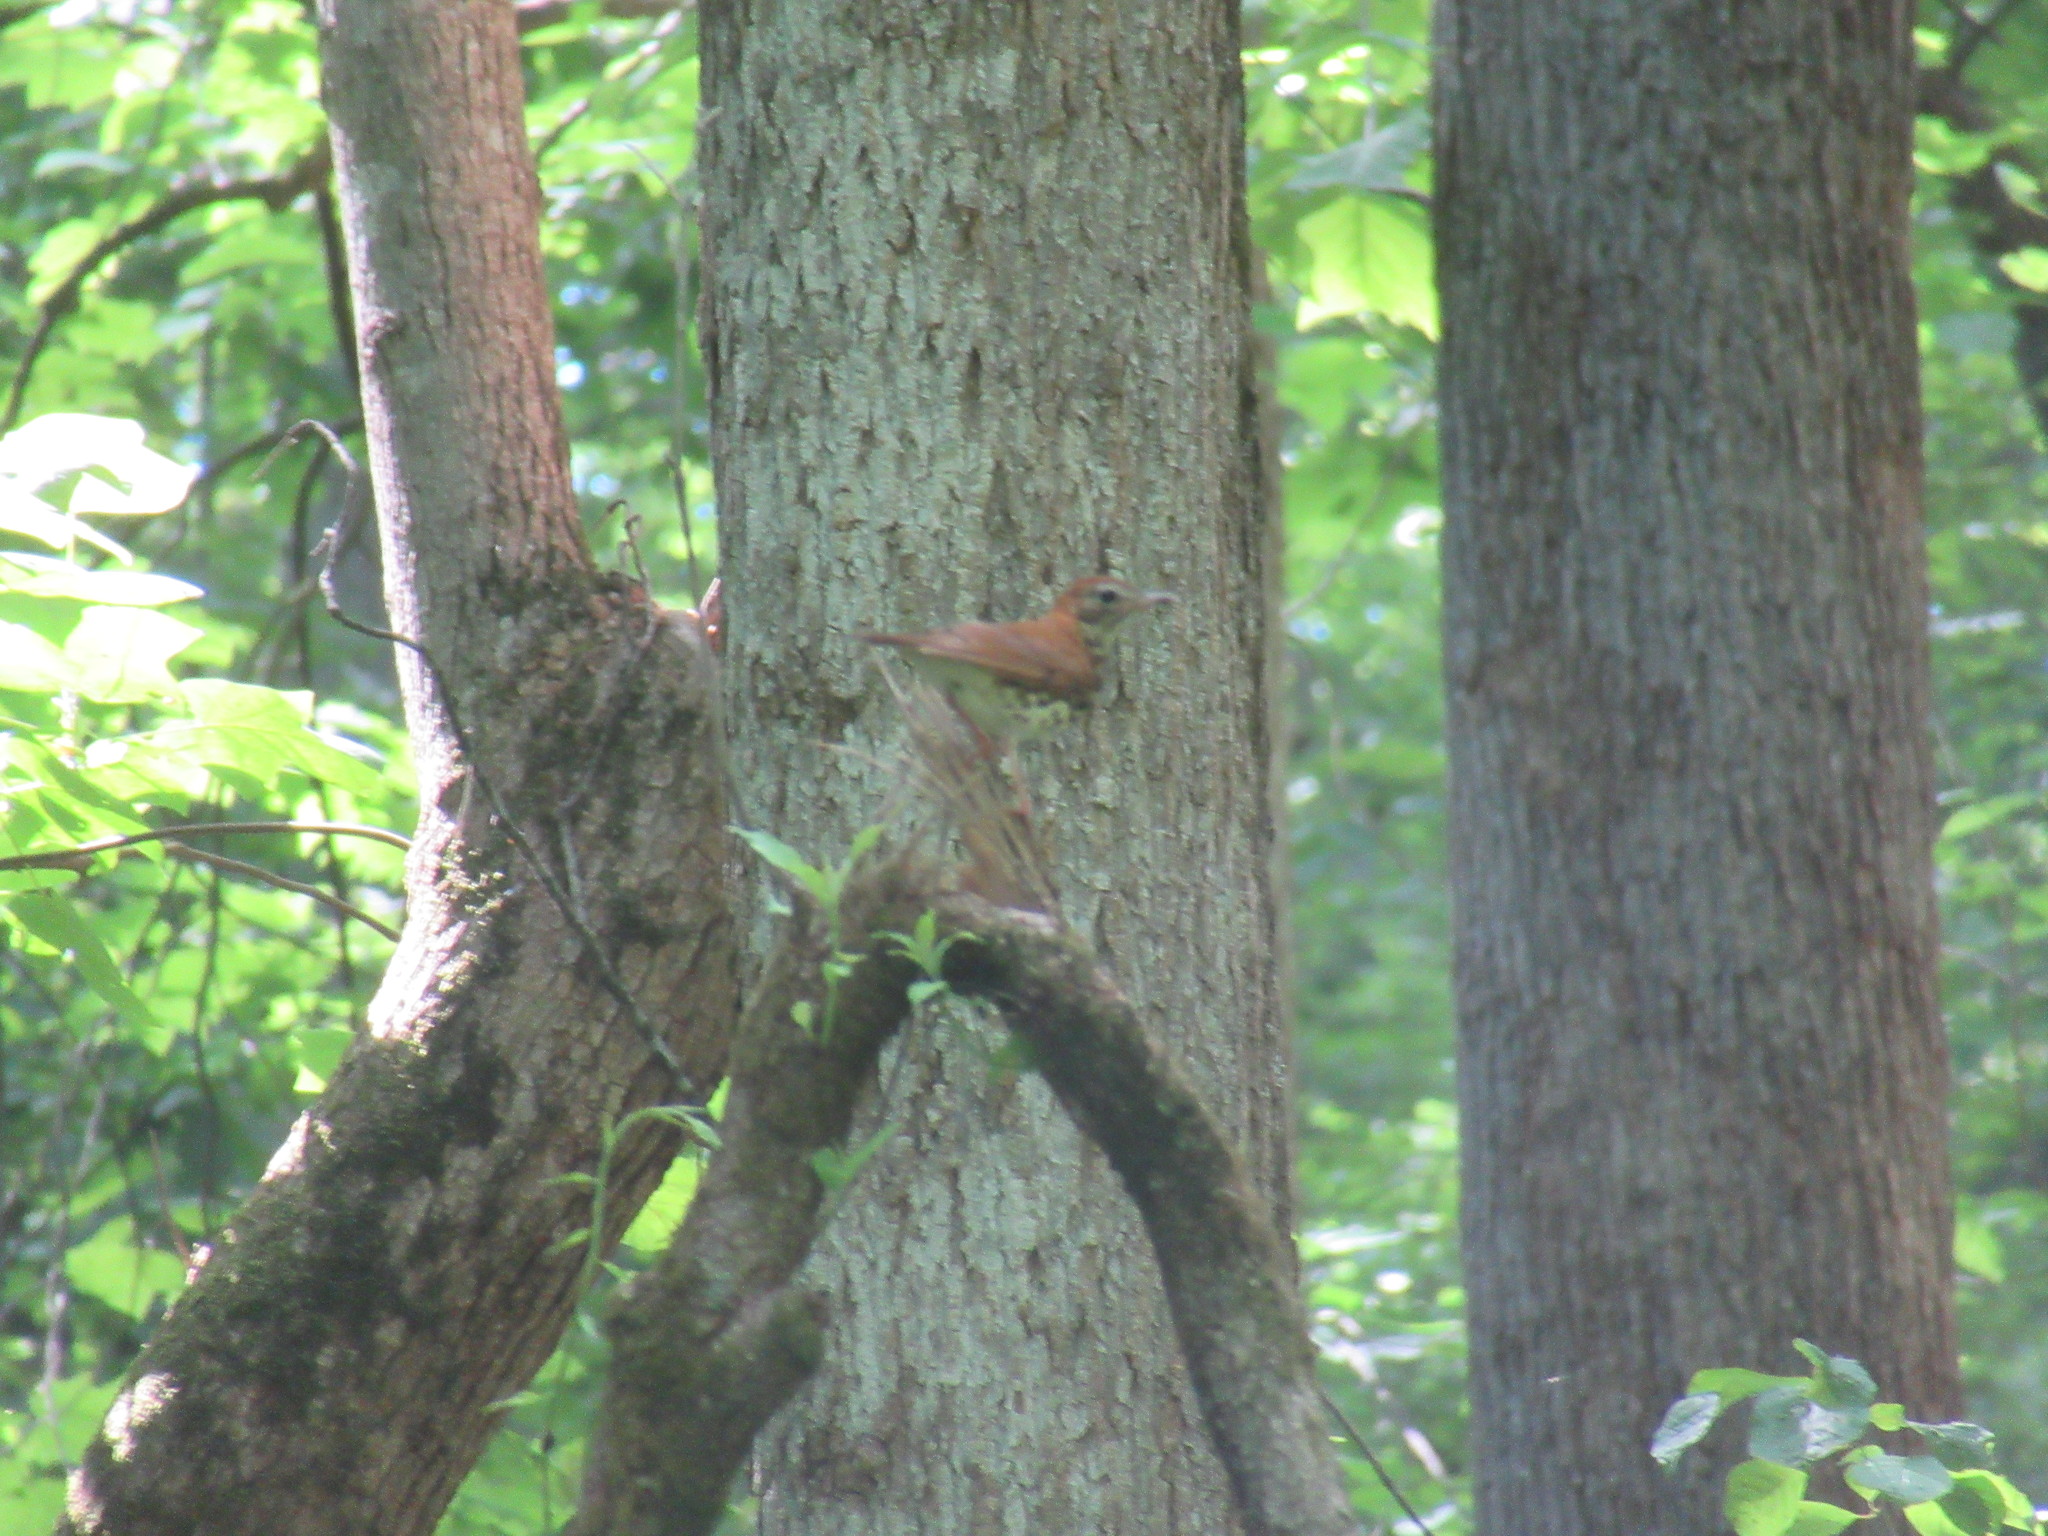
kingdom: Animalia
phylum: Chordata
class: Aves
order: Passeriformes
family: Turdidae
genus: Hylocichla
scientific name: Hylocichla mustelina
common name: Wood thrush
